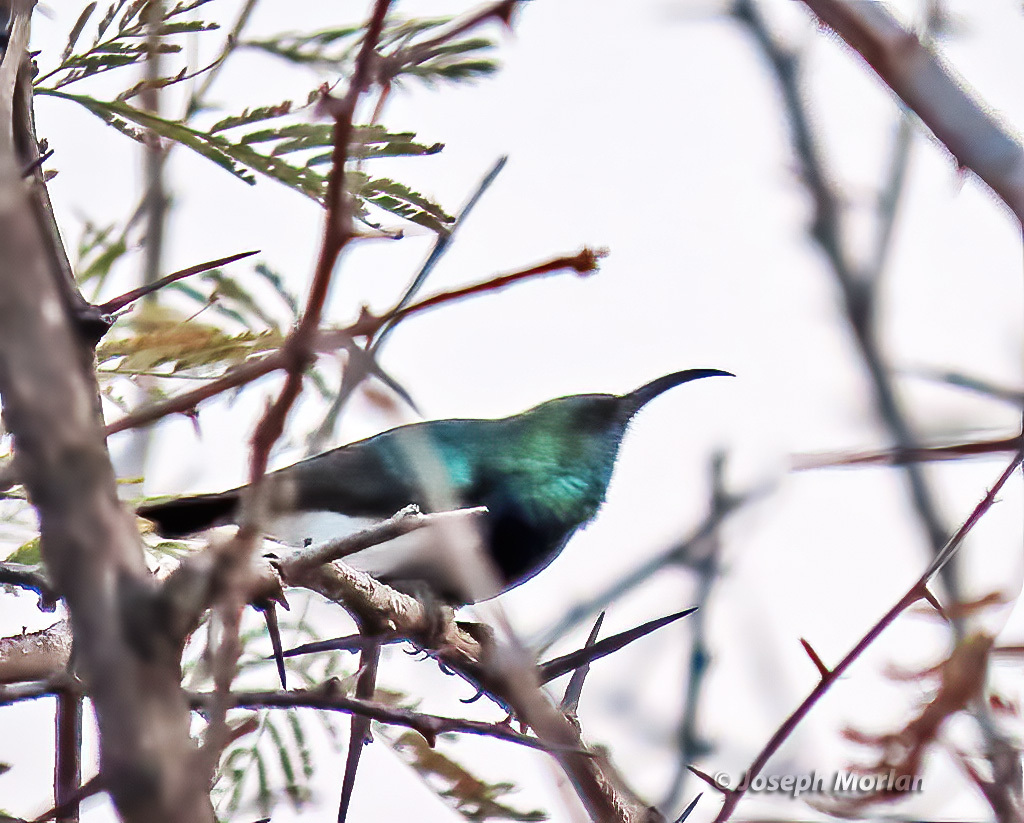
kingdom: Animalia
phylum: Chordata
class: Aves
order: Passeriformes
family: Nectariniidae
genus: Cinnyris
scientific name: Cinnyris talatala
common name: White-bellied sunbird
